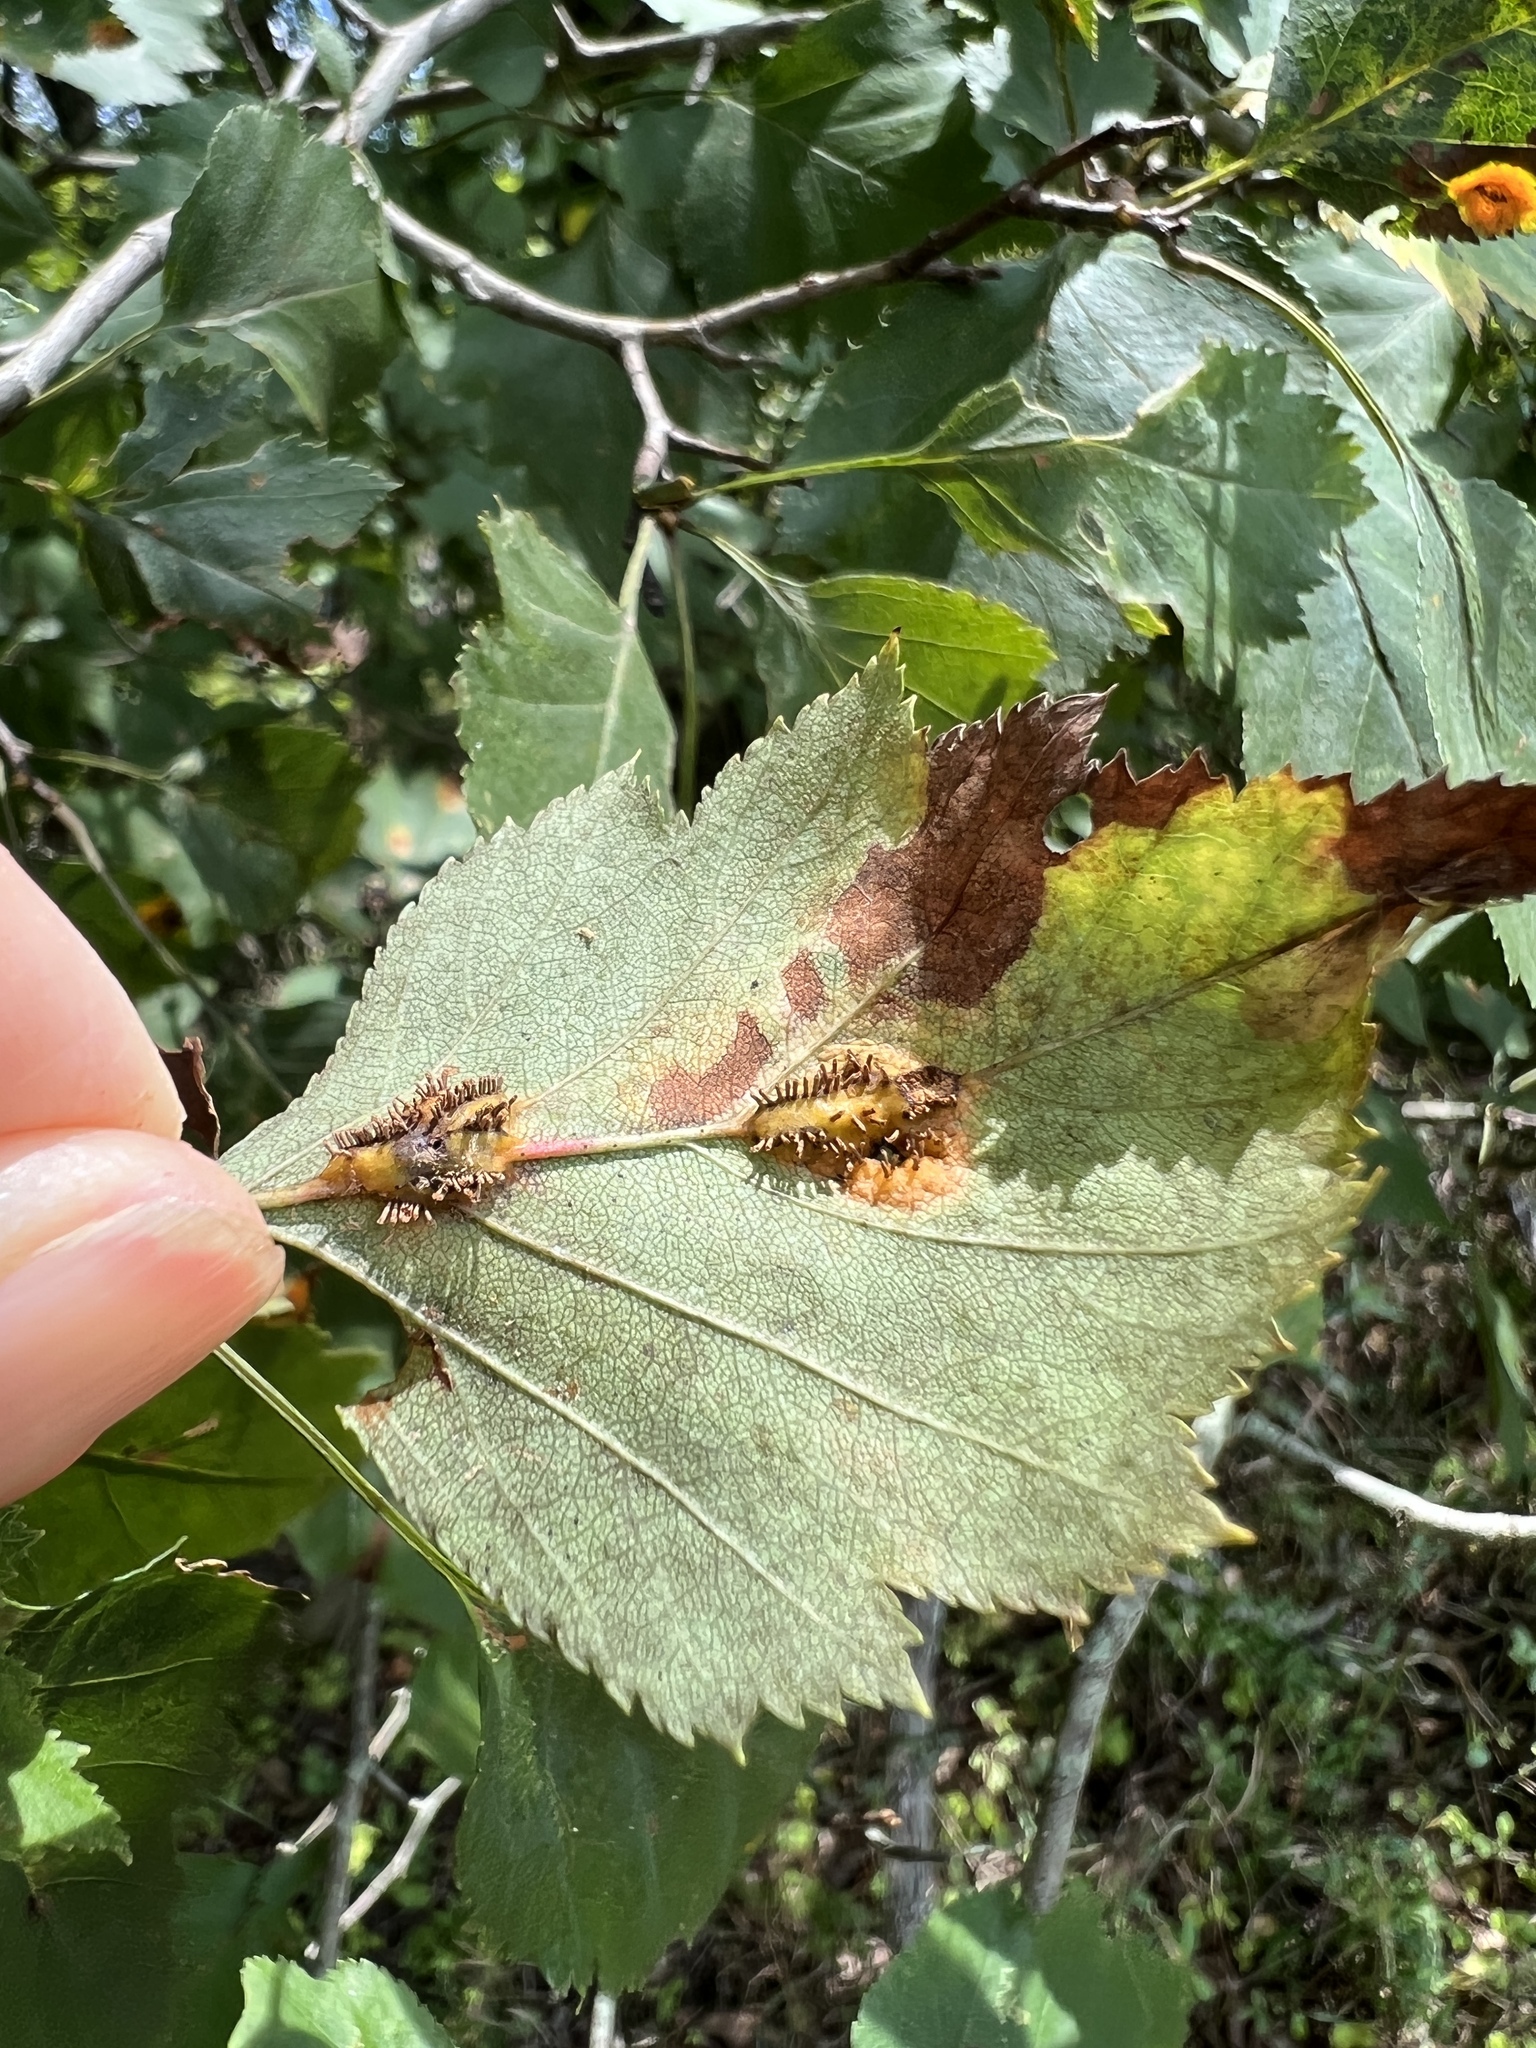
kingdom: Fungi
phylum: Basidiomycota
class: Pucciniomycetes
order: Pucciniales
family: Gymnosporangiaceae
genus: Gymnosporangium
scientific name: Gymnosporangium globosum
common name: Juniper-hawthorn rust
